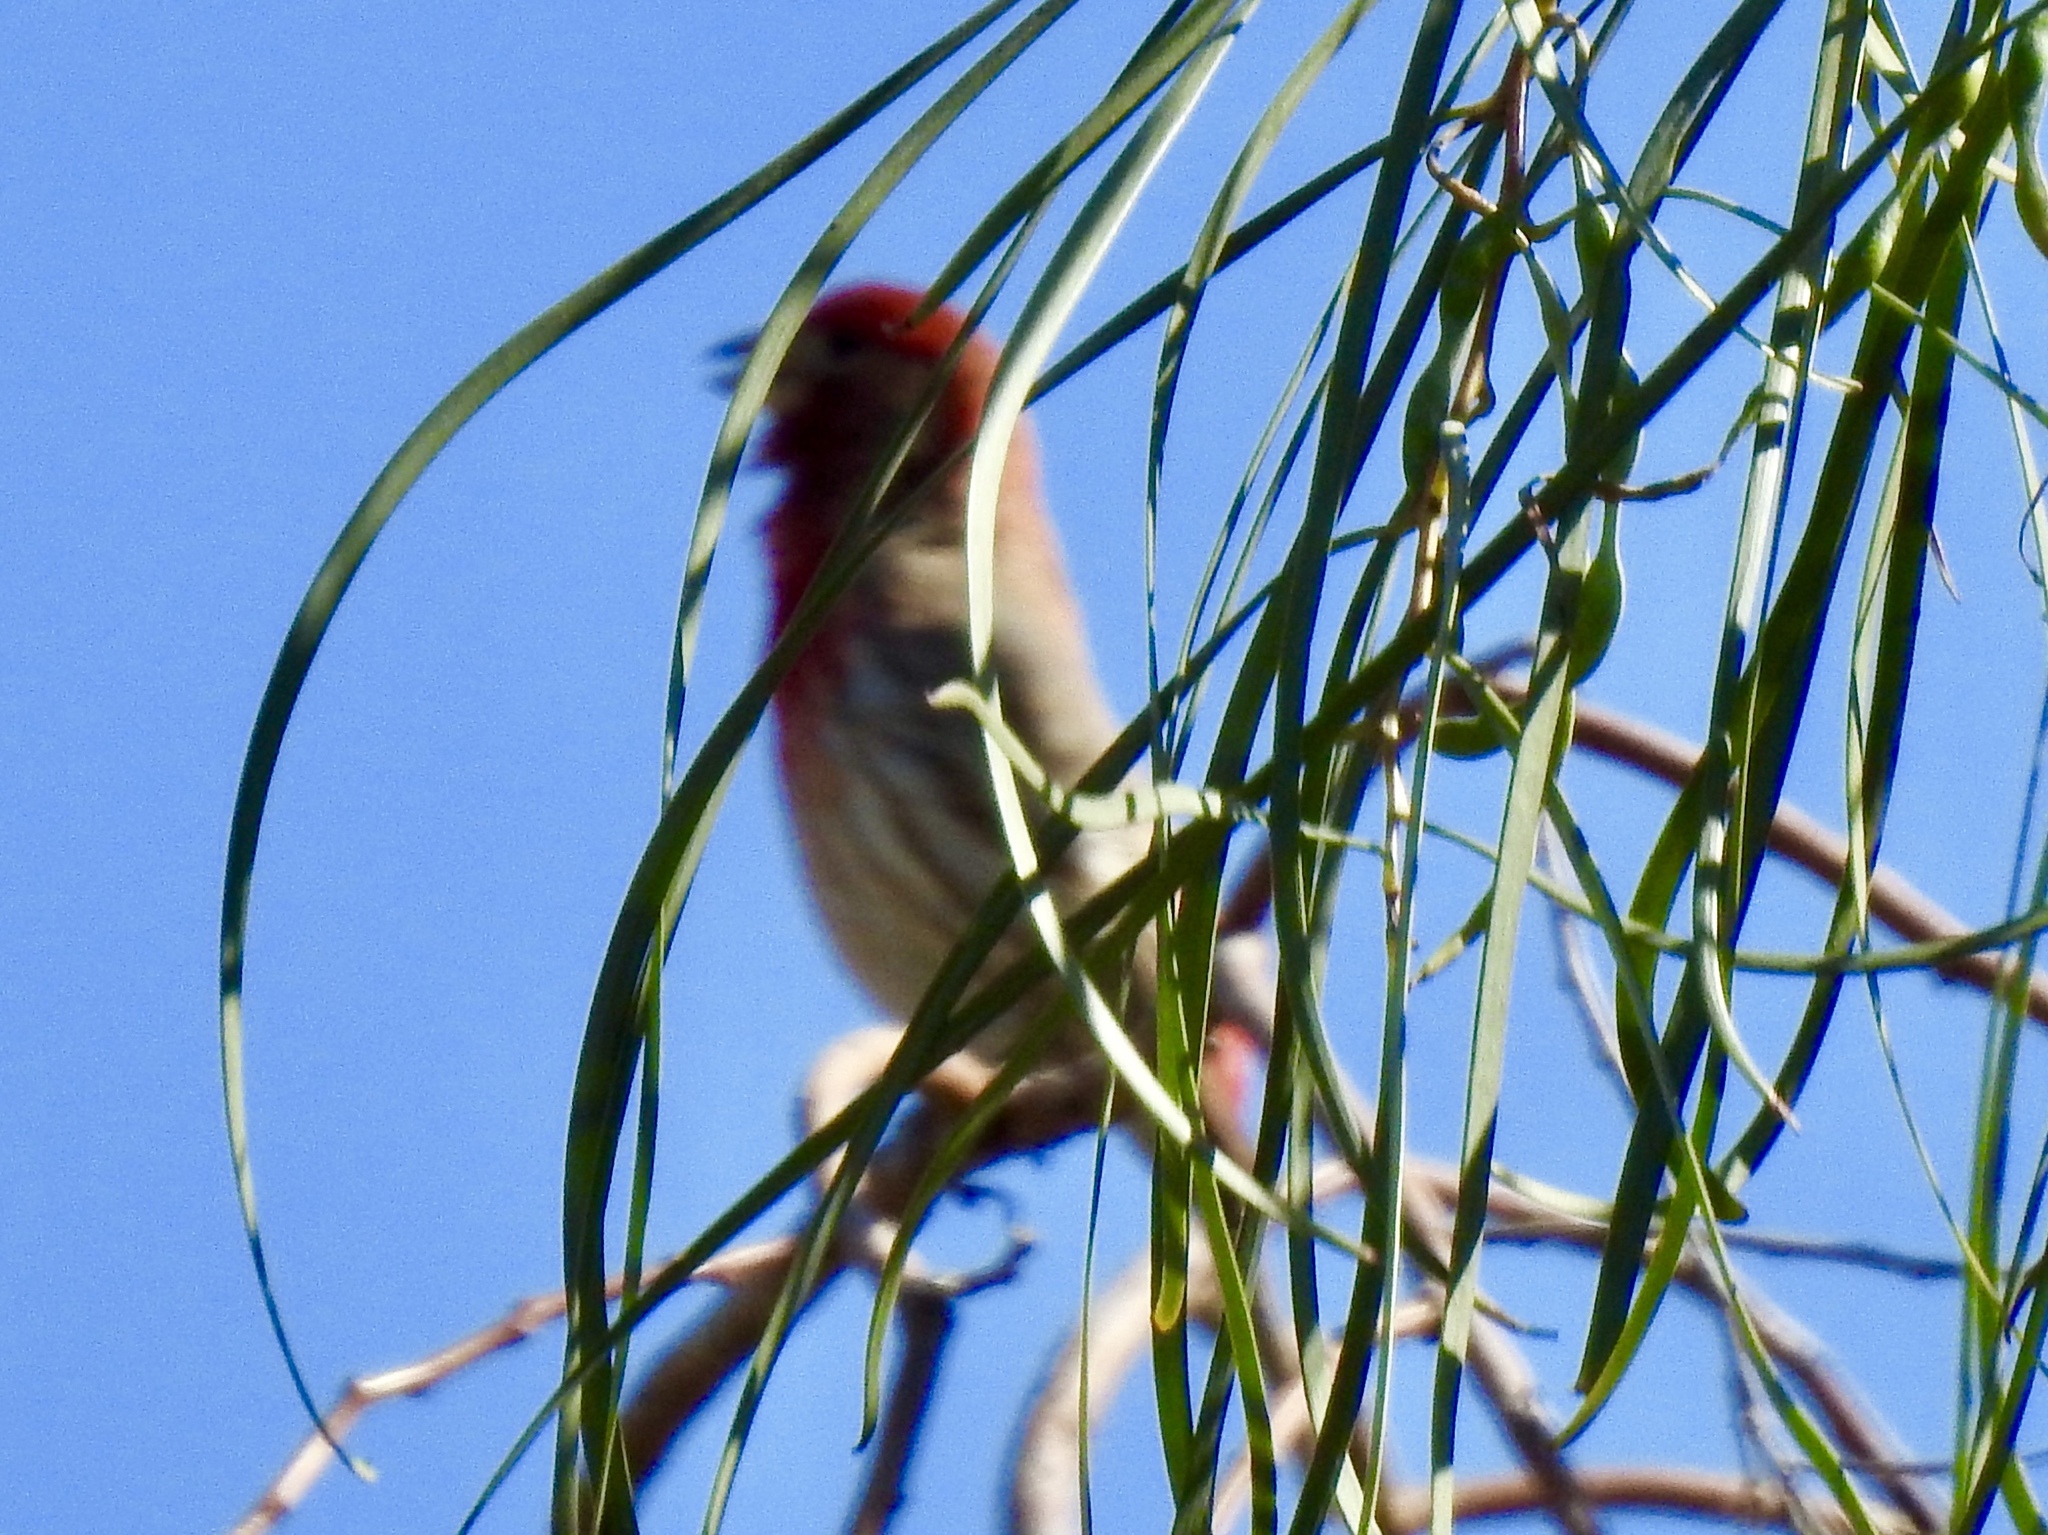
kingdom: Animalia
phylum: Chordata
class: Aves
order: Passeriformes
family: Fringillidae
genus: Haemorhous
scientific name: Haemorhous mexicanus
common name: House finch
